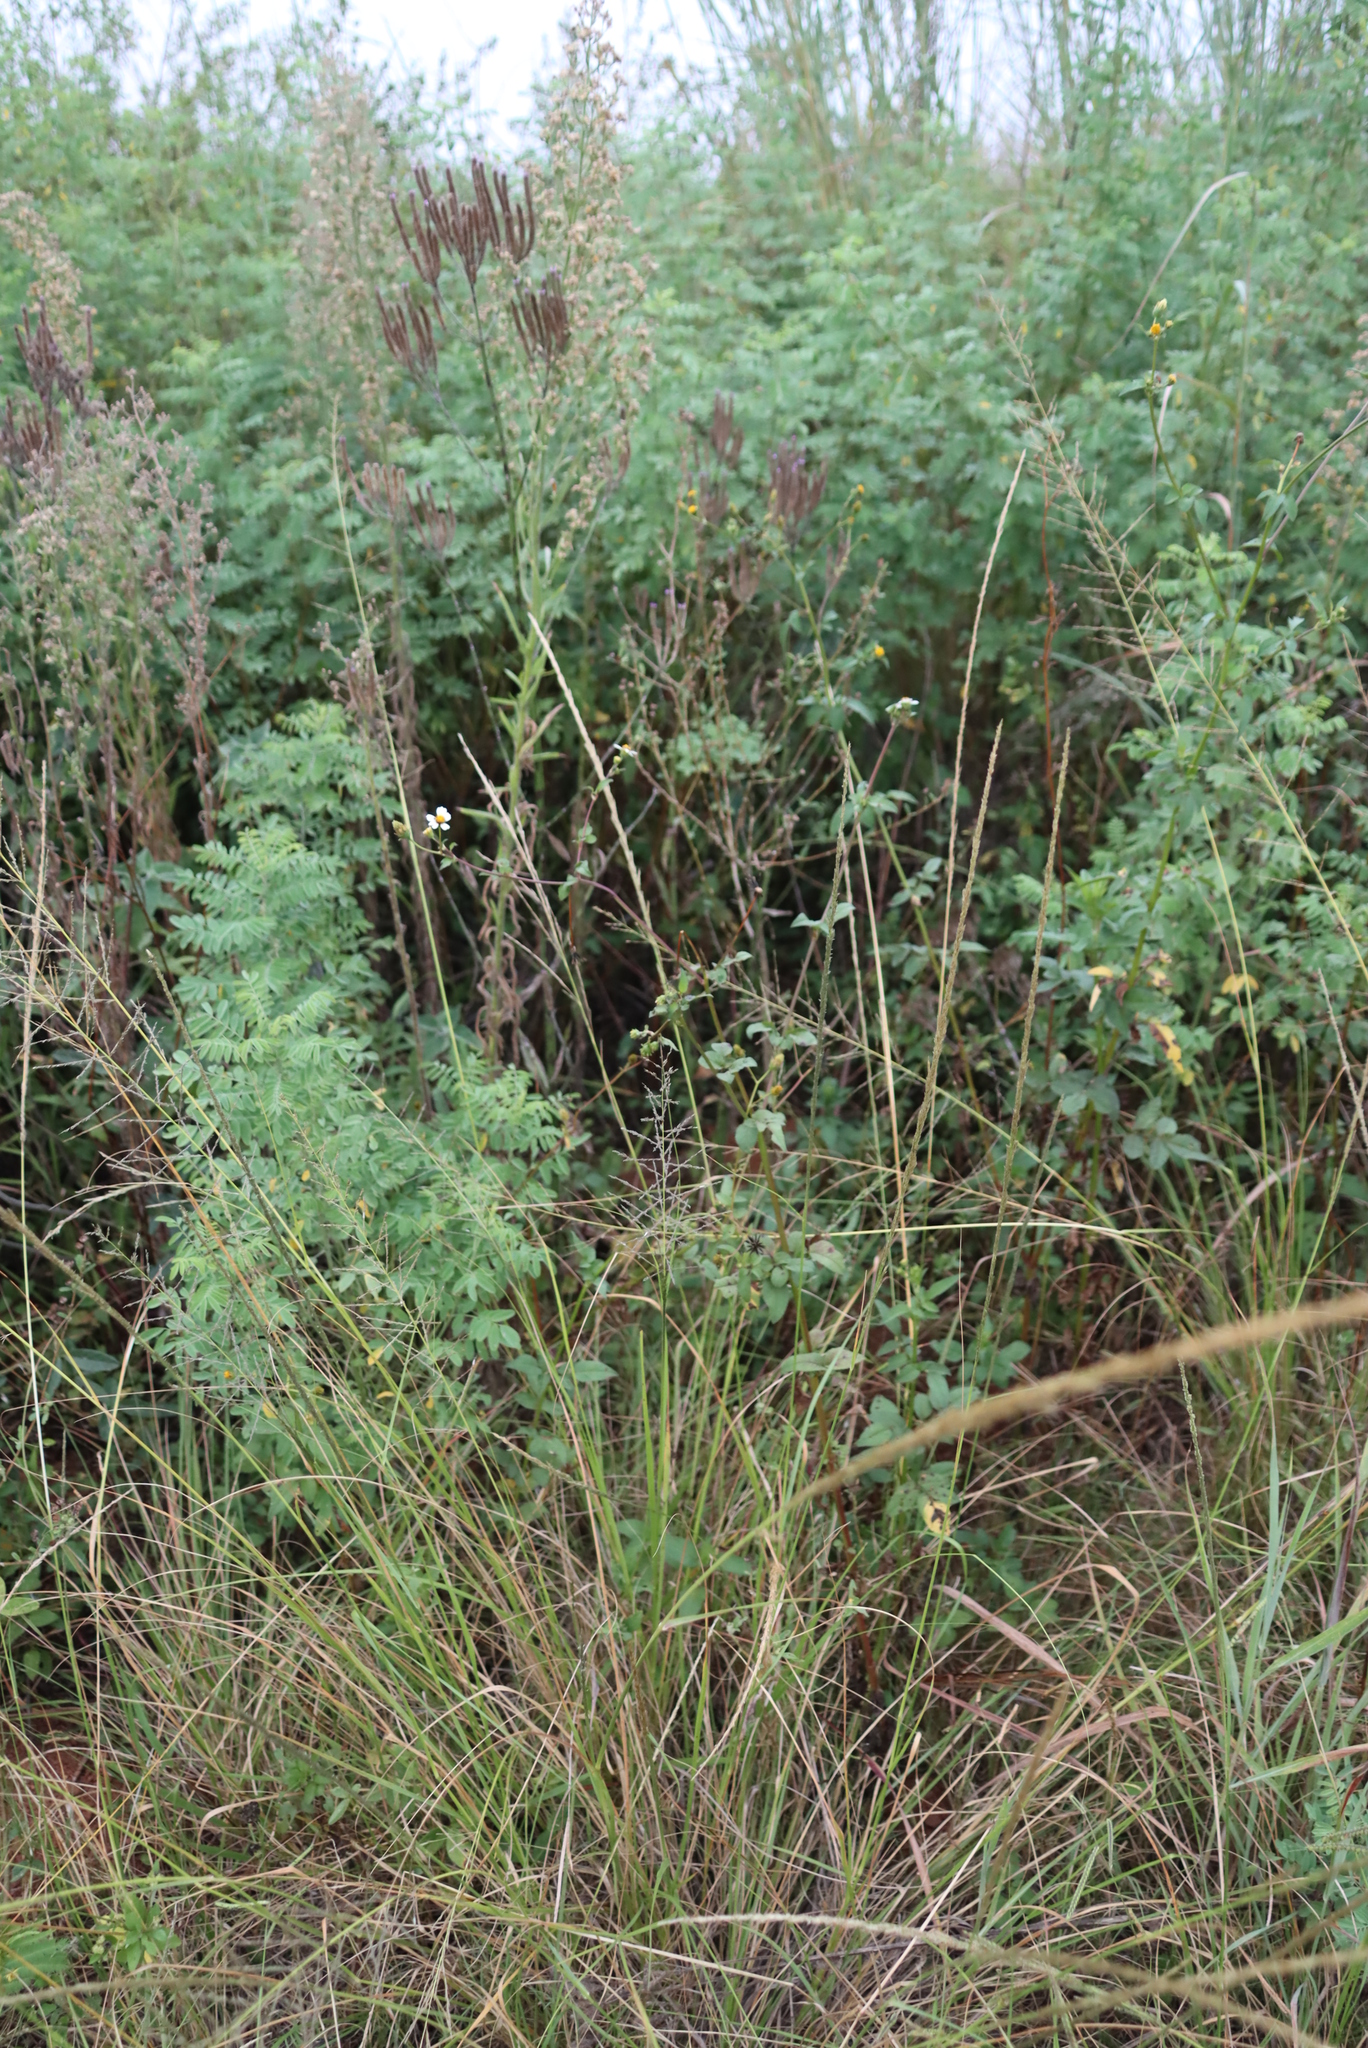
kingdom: Plantae
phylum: Tracheophyta
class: Magnoliopsida
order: Asterales
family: Asteraceae
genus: Bidens
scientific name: Bidens pilosa
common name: Black-jack
